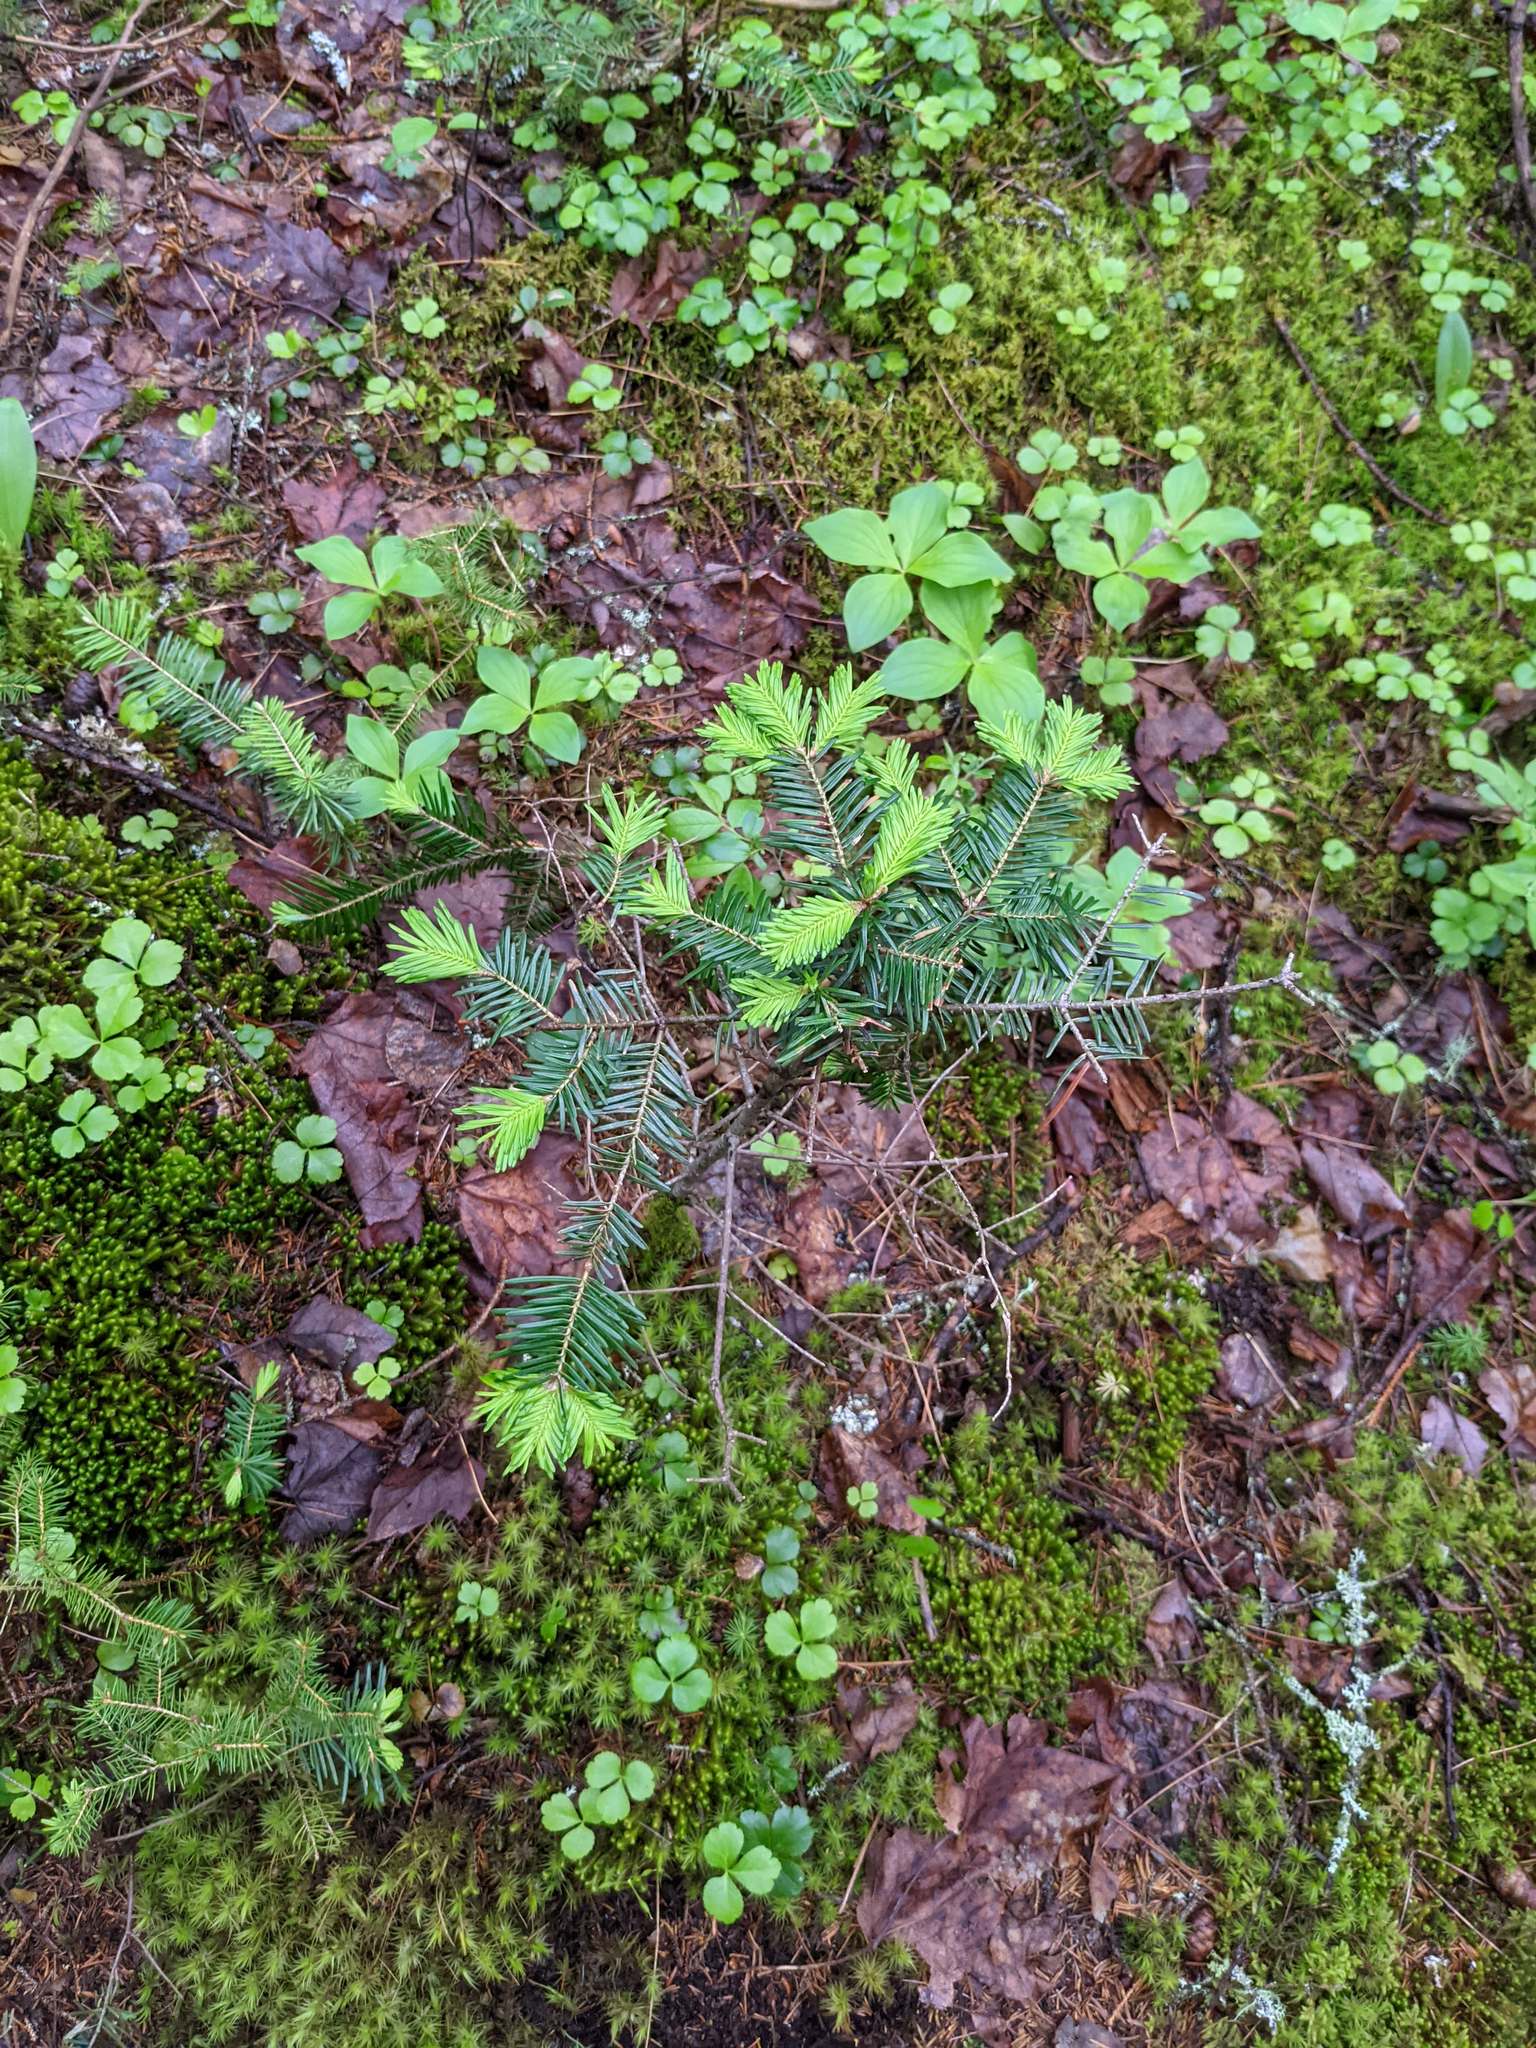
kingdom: Plantae
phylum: Tracheophyta
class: Pinopsida
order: Pinales
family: Pinaceae
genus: Abies
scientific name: Abies balsamea
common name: Balsam fir
